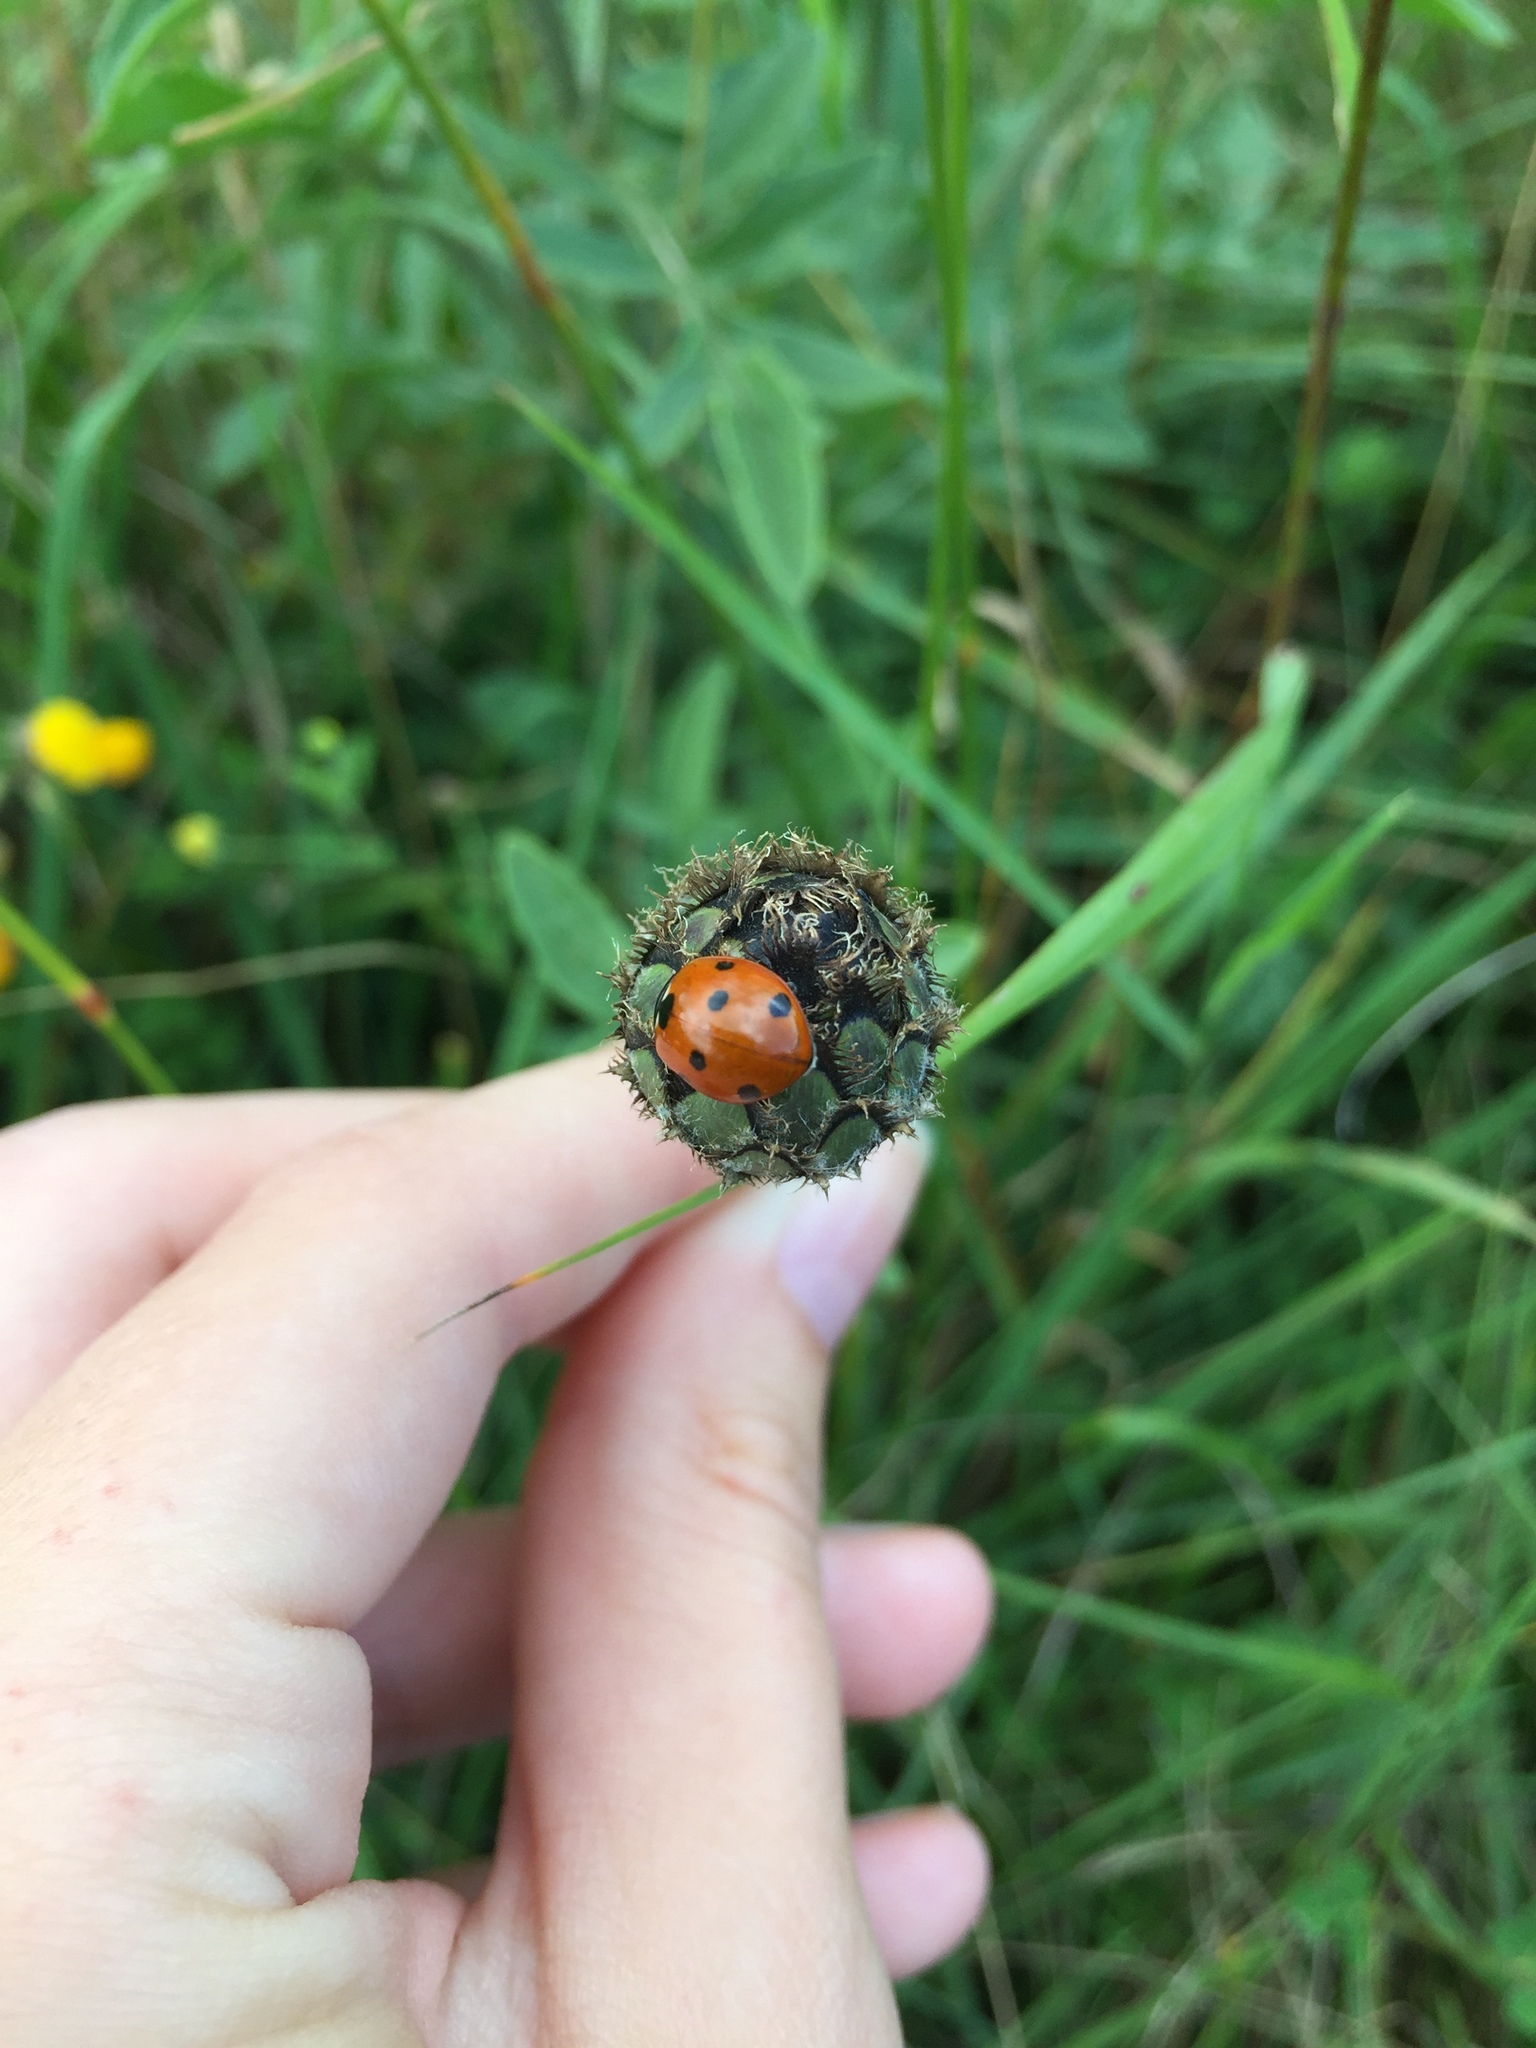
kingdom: Animalia
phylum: Arthropoda
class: Insecta
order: Coleoptera
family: Coccinellidae
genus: Coccinella
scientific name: Coccinella septempunctata
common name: Sevenspotted lady beetle
